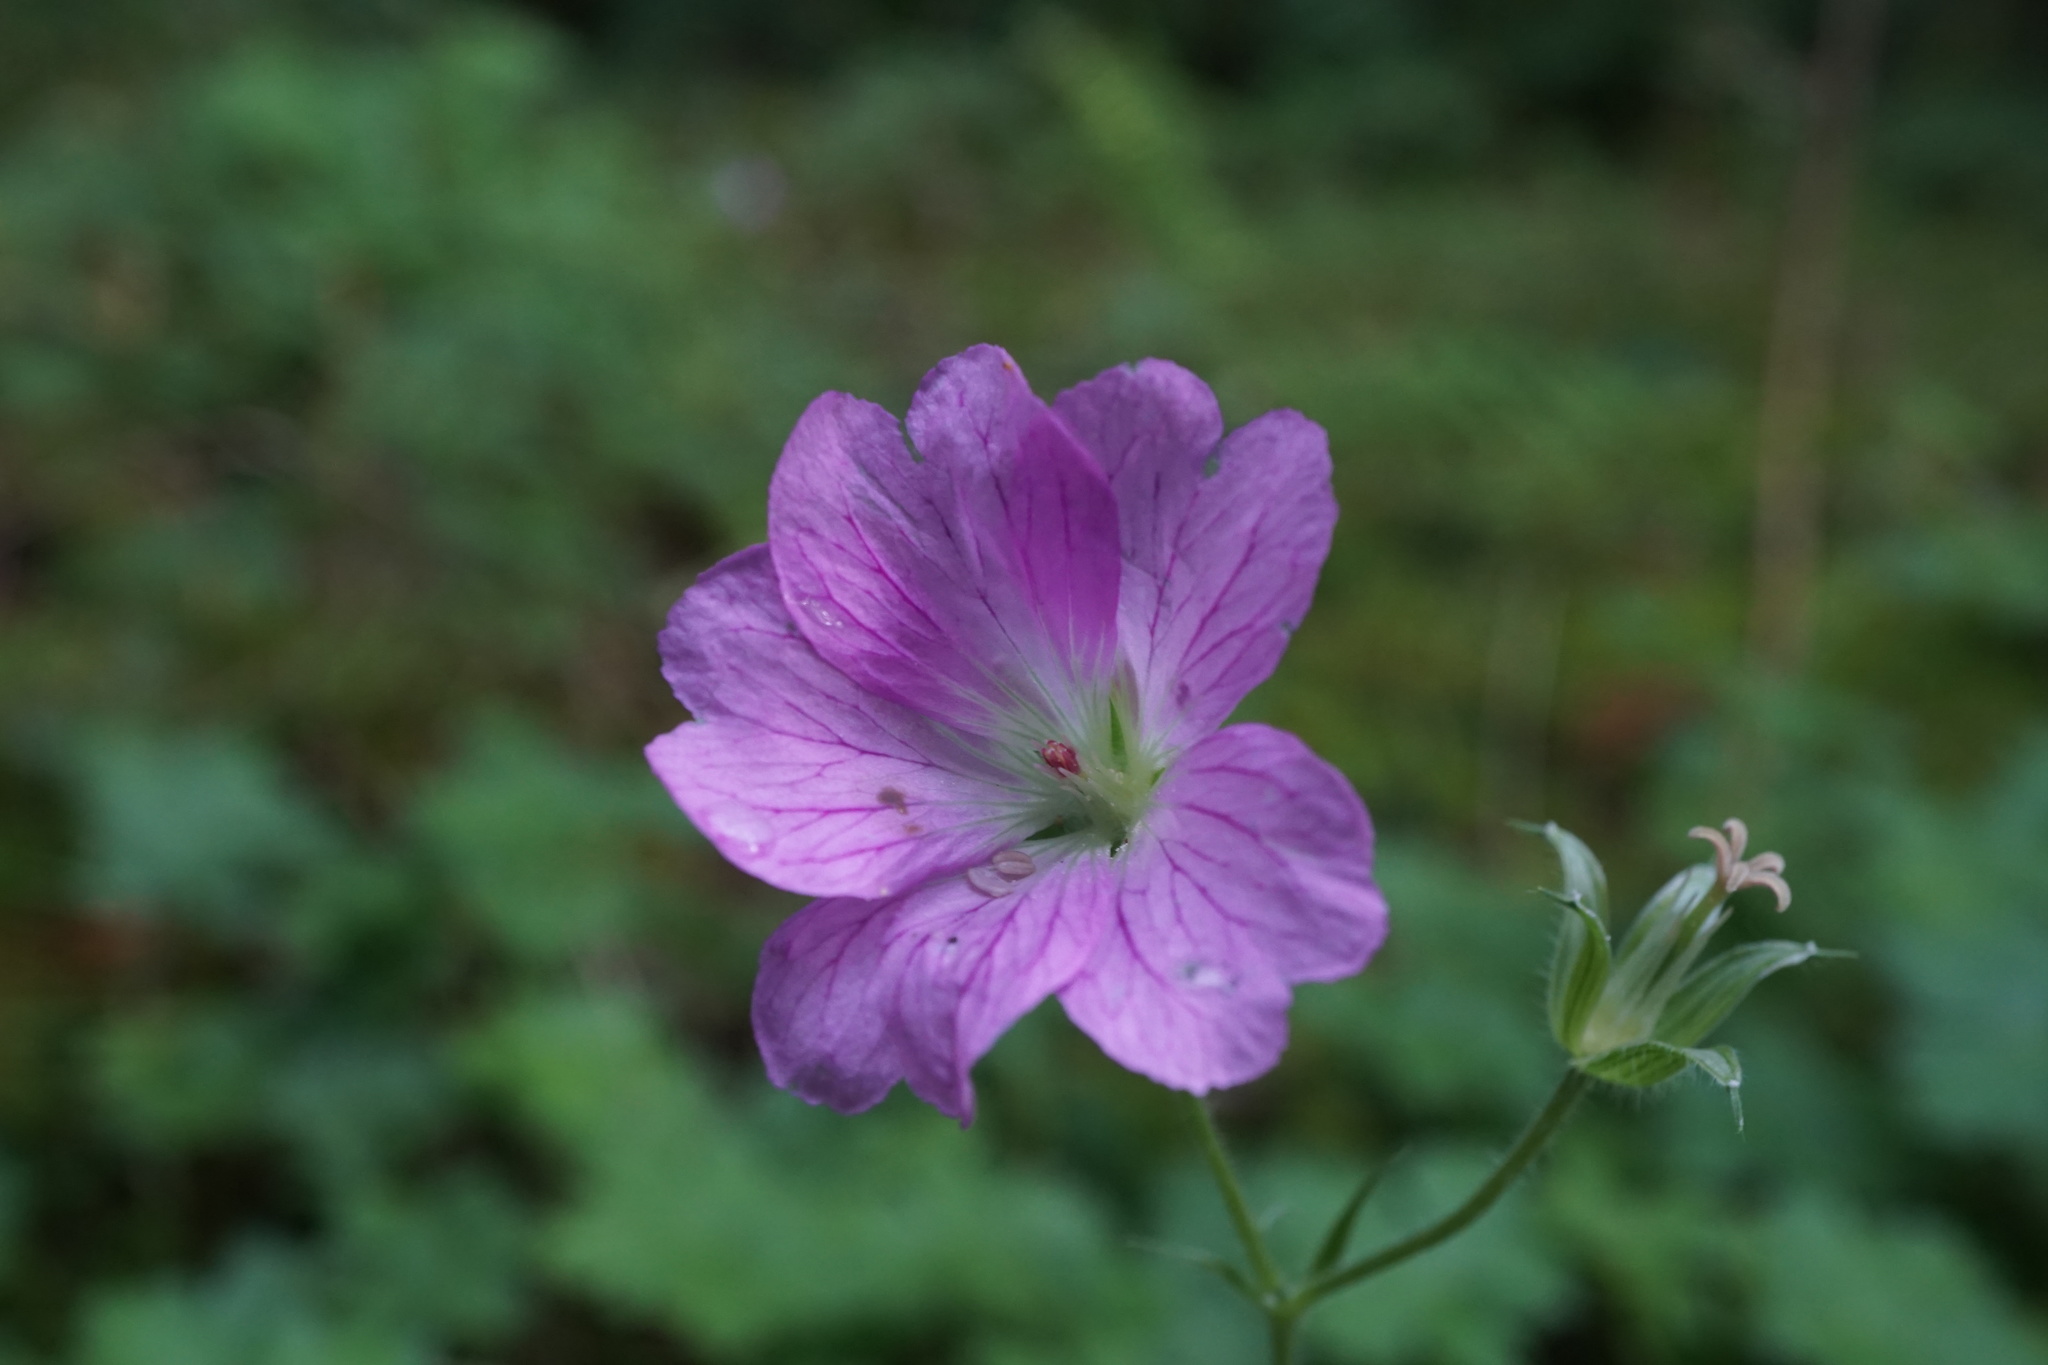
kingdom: Plantae
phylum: Tracheophyta
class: Magnoliopsida
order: Geraniales
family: Geraniaceae
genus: Geranium
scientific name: Geranium oxonianum
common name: Druce's crane's-bill
